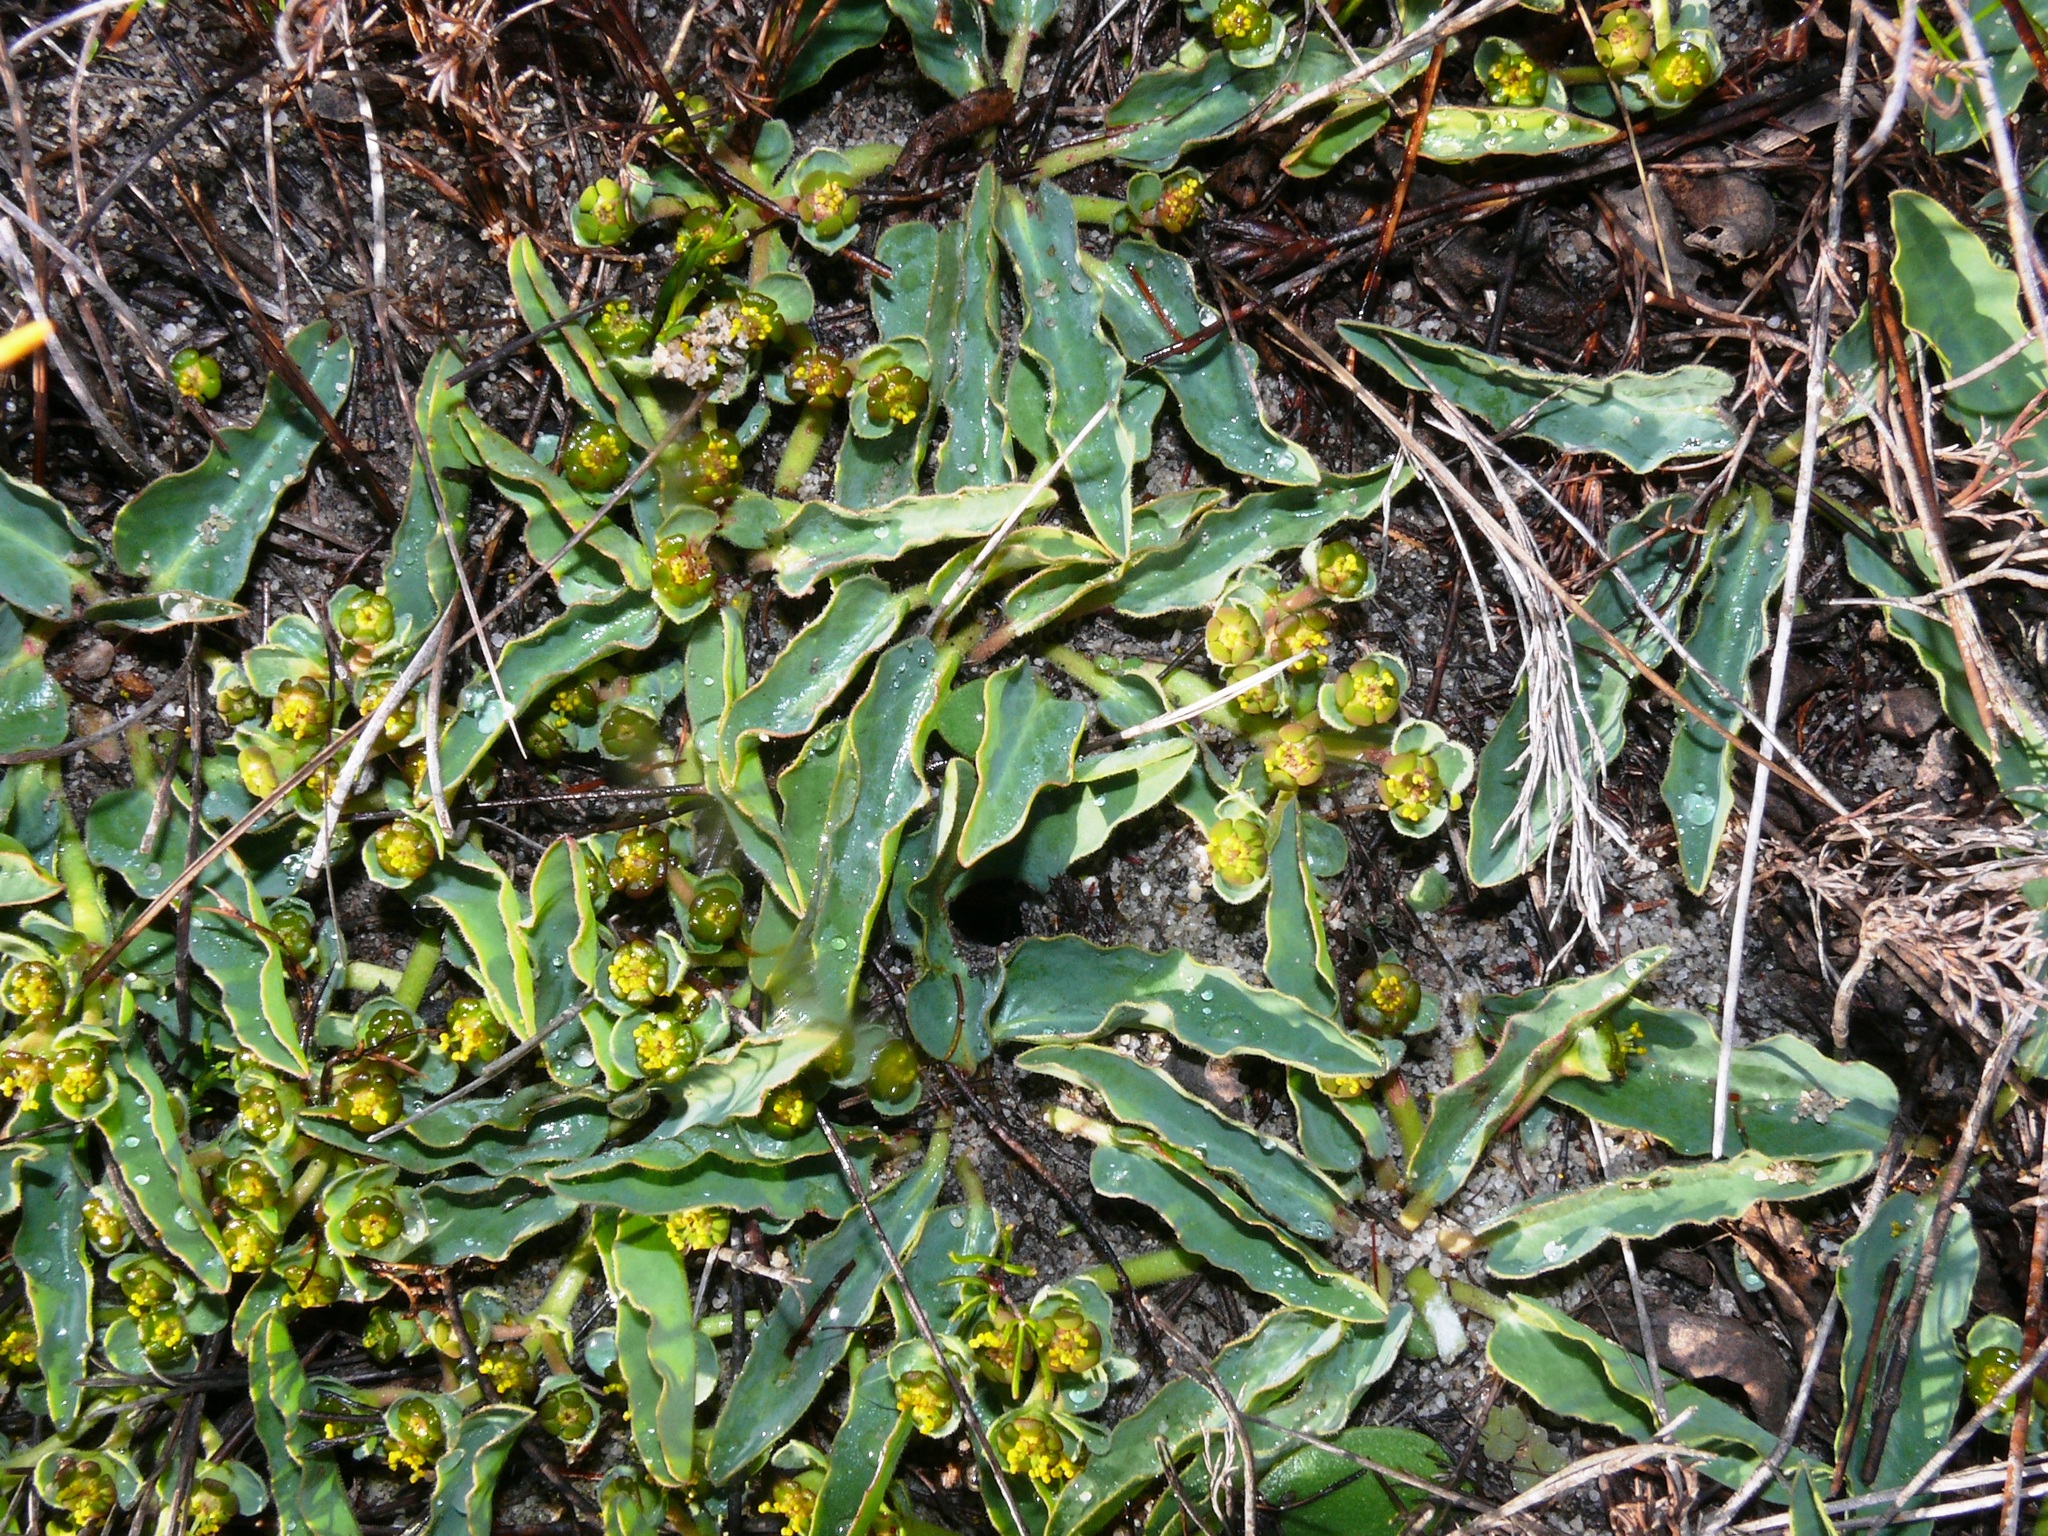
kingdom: Plantae
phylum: Tracheophyta
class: Magnoliopsida
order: Malpighiales
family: Euphorbiaceae
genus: Euphorbia
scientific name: Euphorbia tuberosa
